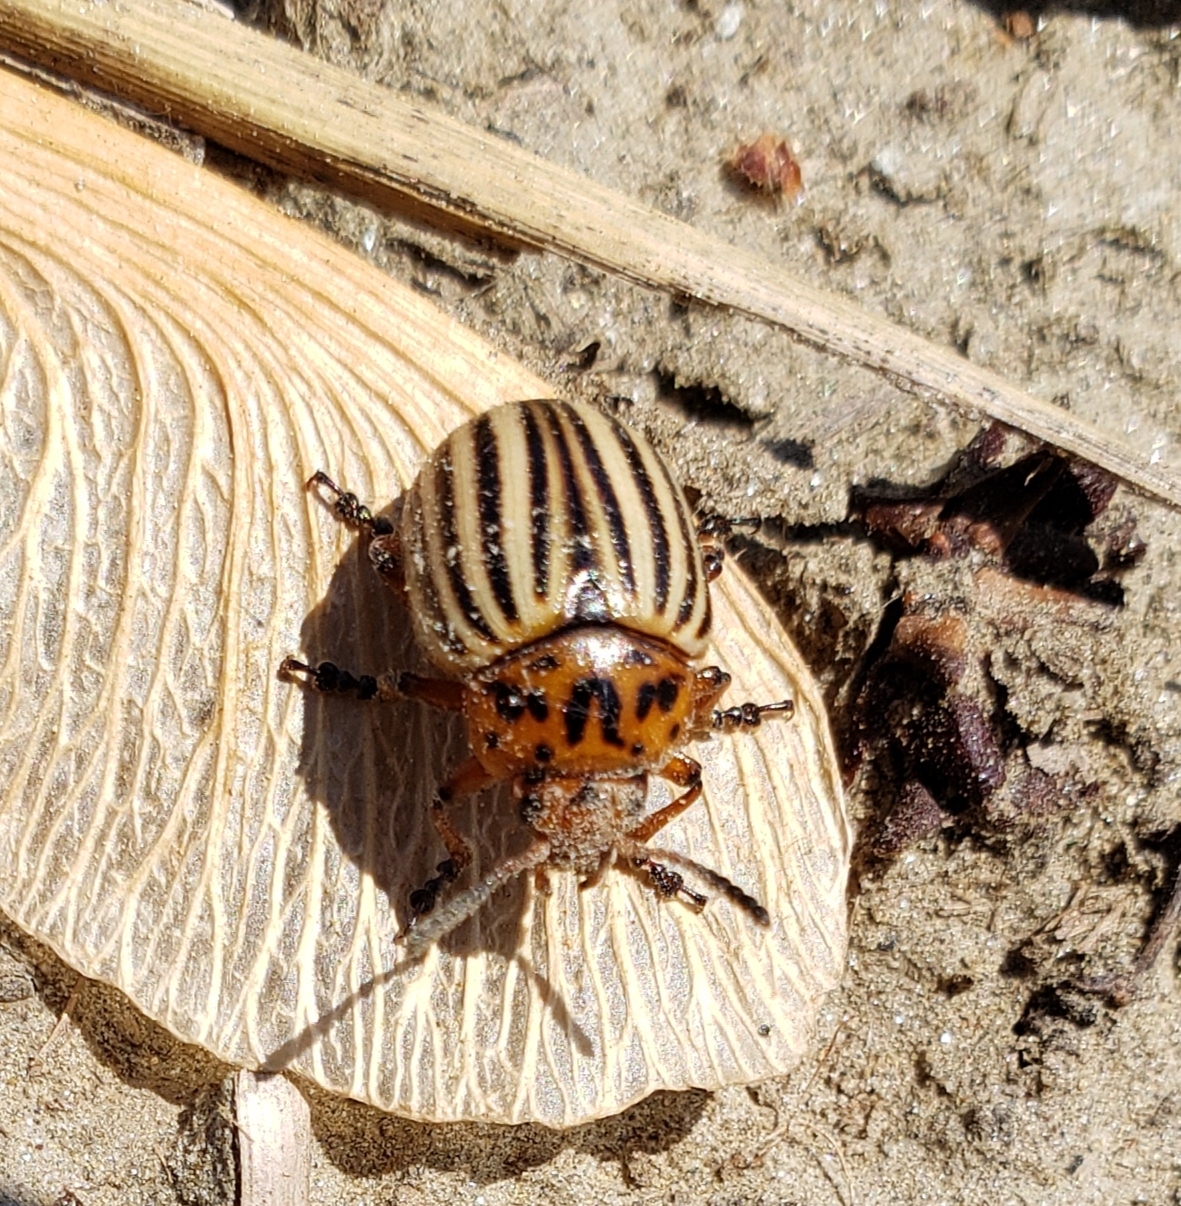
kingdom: Animalia
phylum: Arthropoda
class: Insecta
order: Coleoptera
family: Chrysomelidae
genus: Leptinotarsa
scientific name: Leptinotarsa decemlineata
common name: Colorado potato beetle
